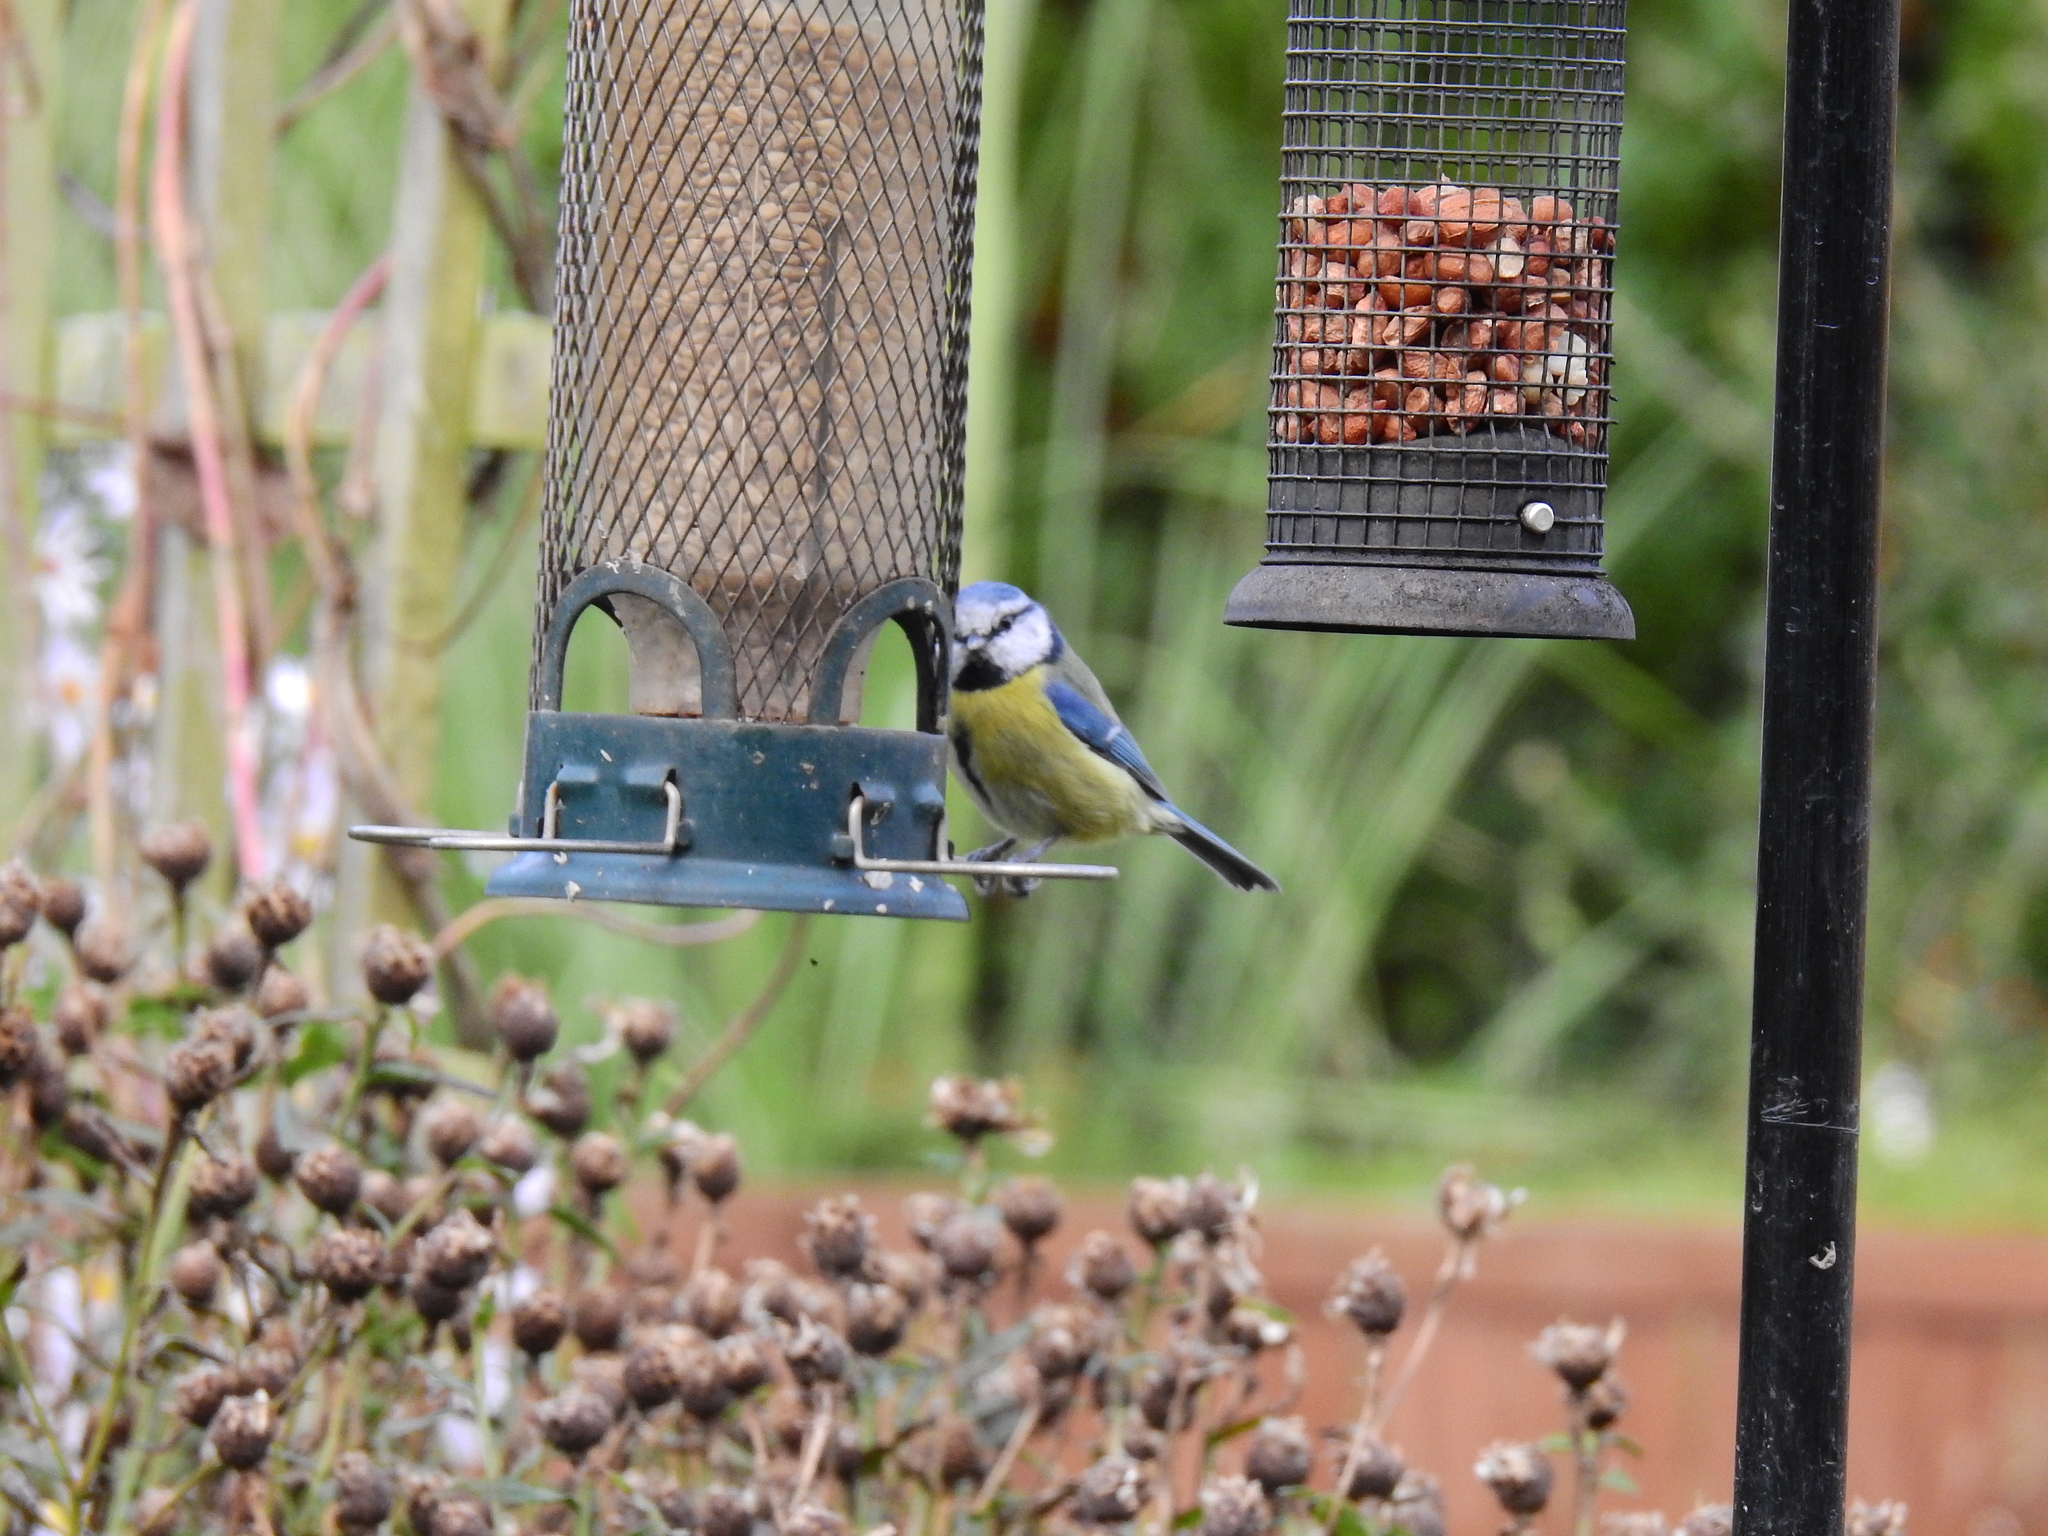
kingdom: Animalia
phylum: Chordata
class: Aves
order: Passeriformes
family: Paridae
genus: Cyanistes
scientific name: Cyanistes caeruleus
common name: Eurasian blue tit
